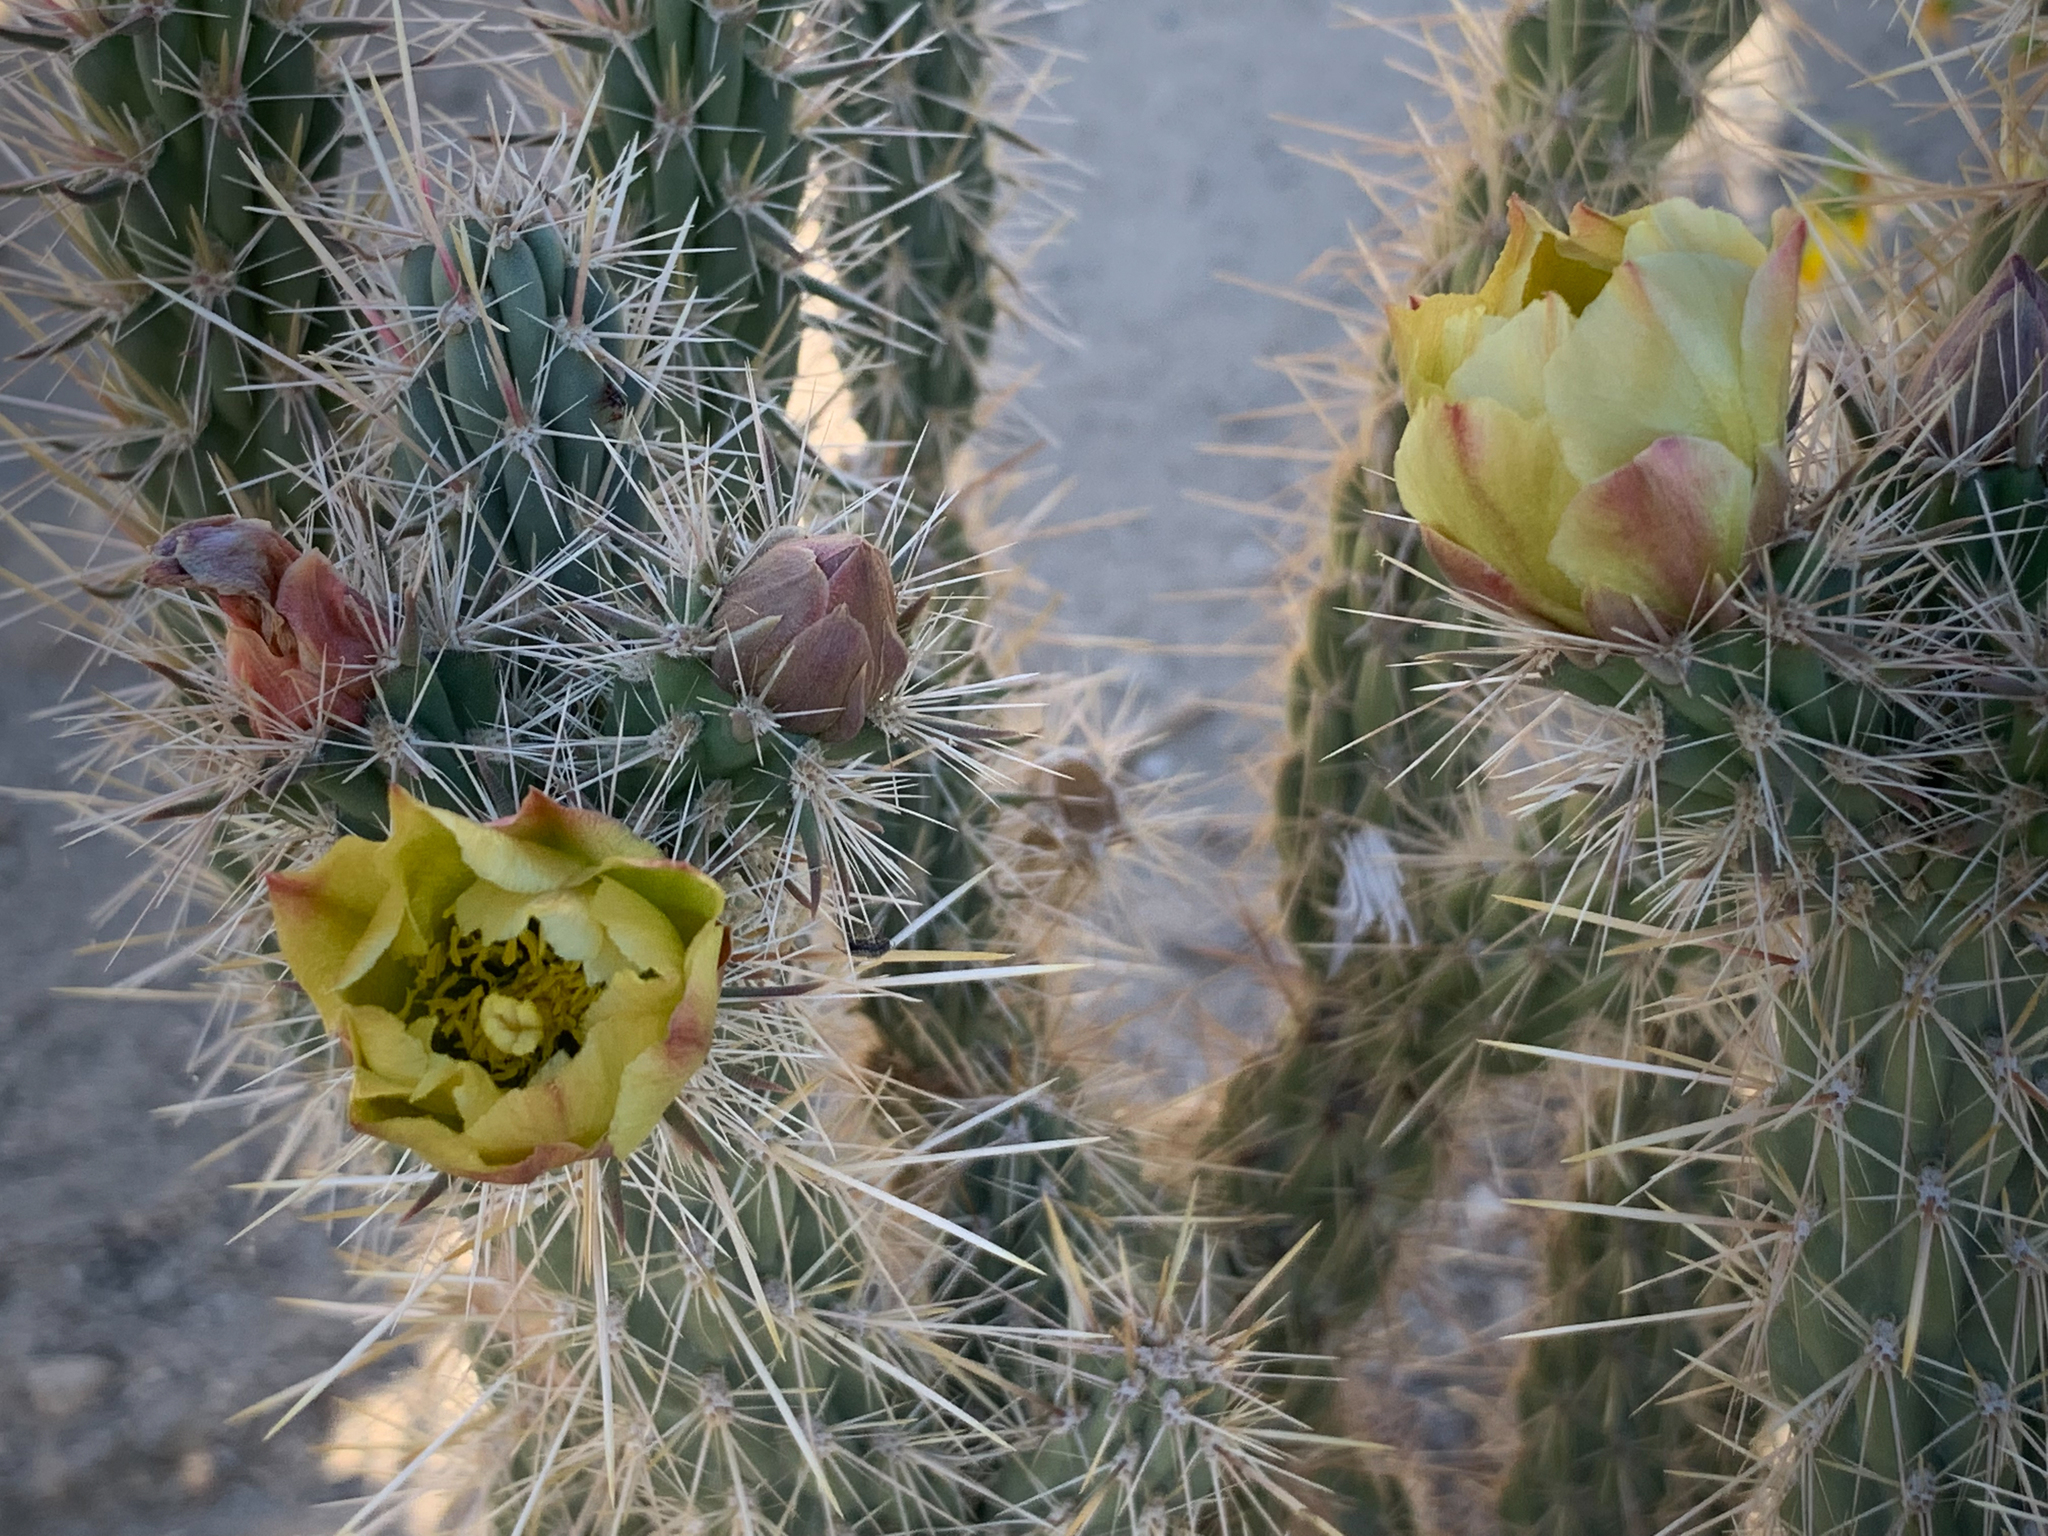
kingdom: Plantae
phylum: Tracheophyta
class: Magnoliopsida
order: Caryophyllales
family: Cactaceae
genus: Cylindropuntia
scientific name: Cylindropuntia ganderi
